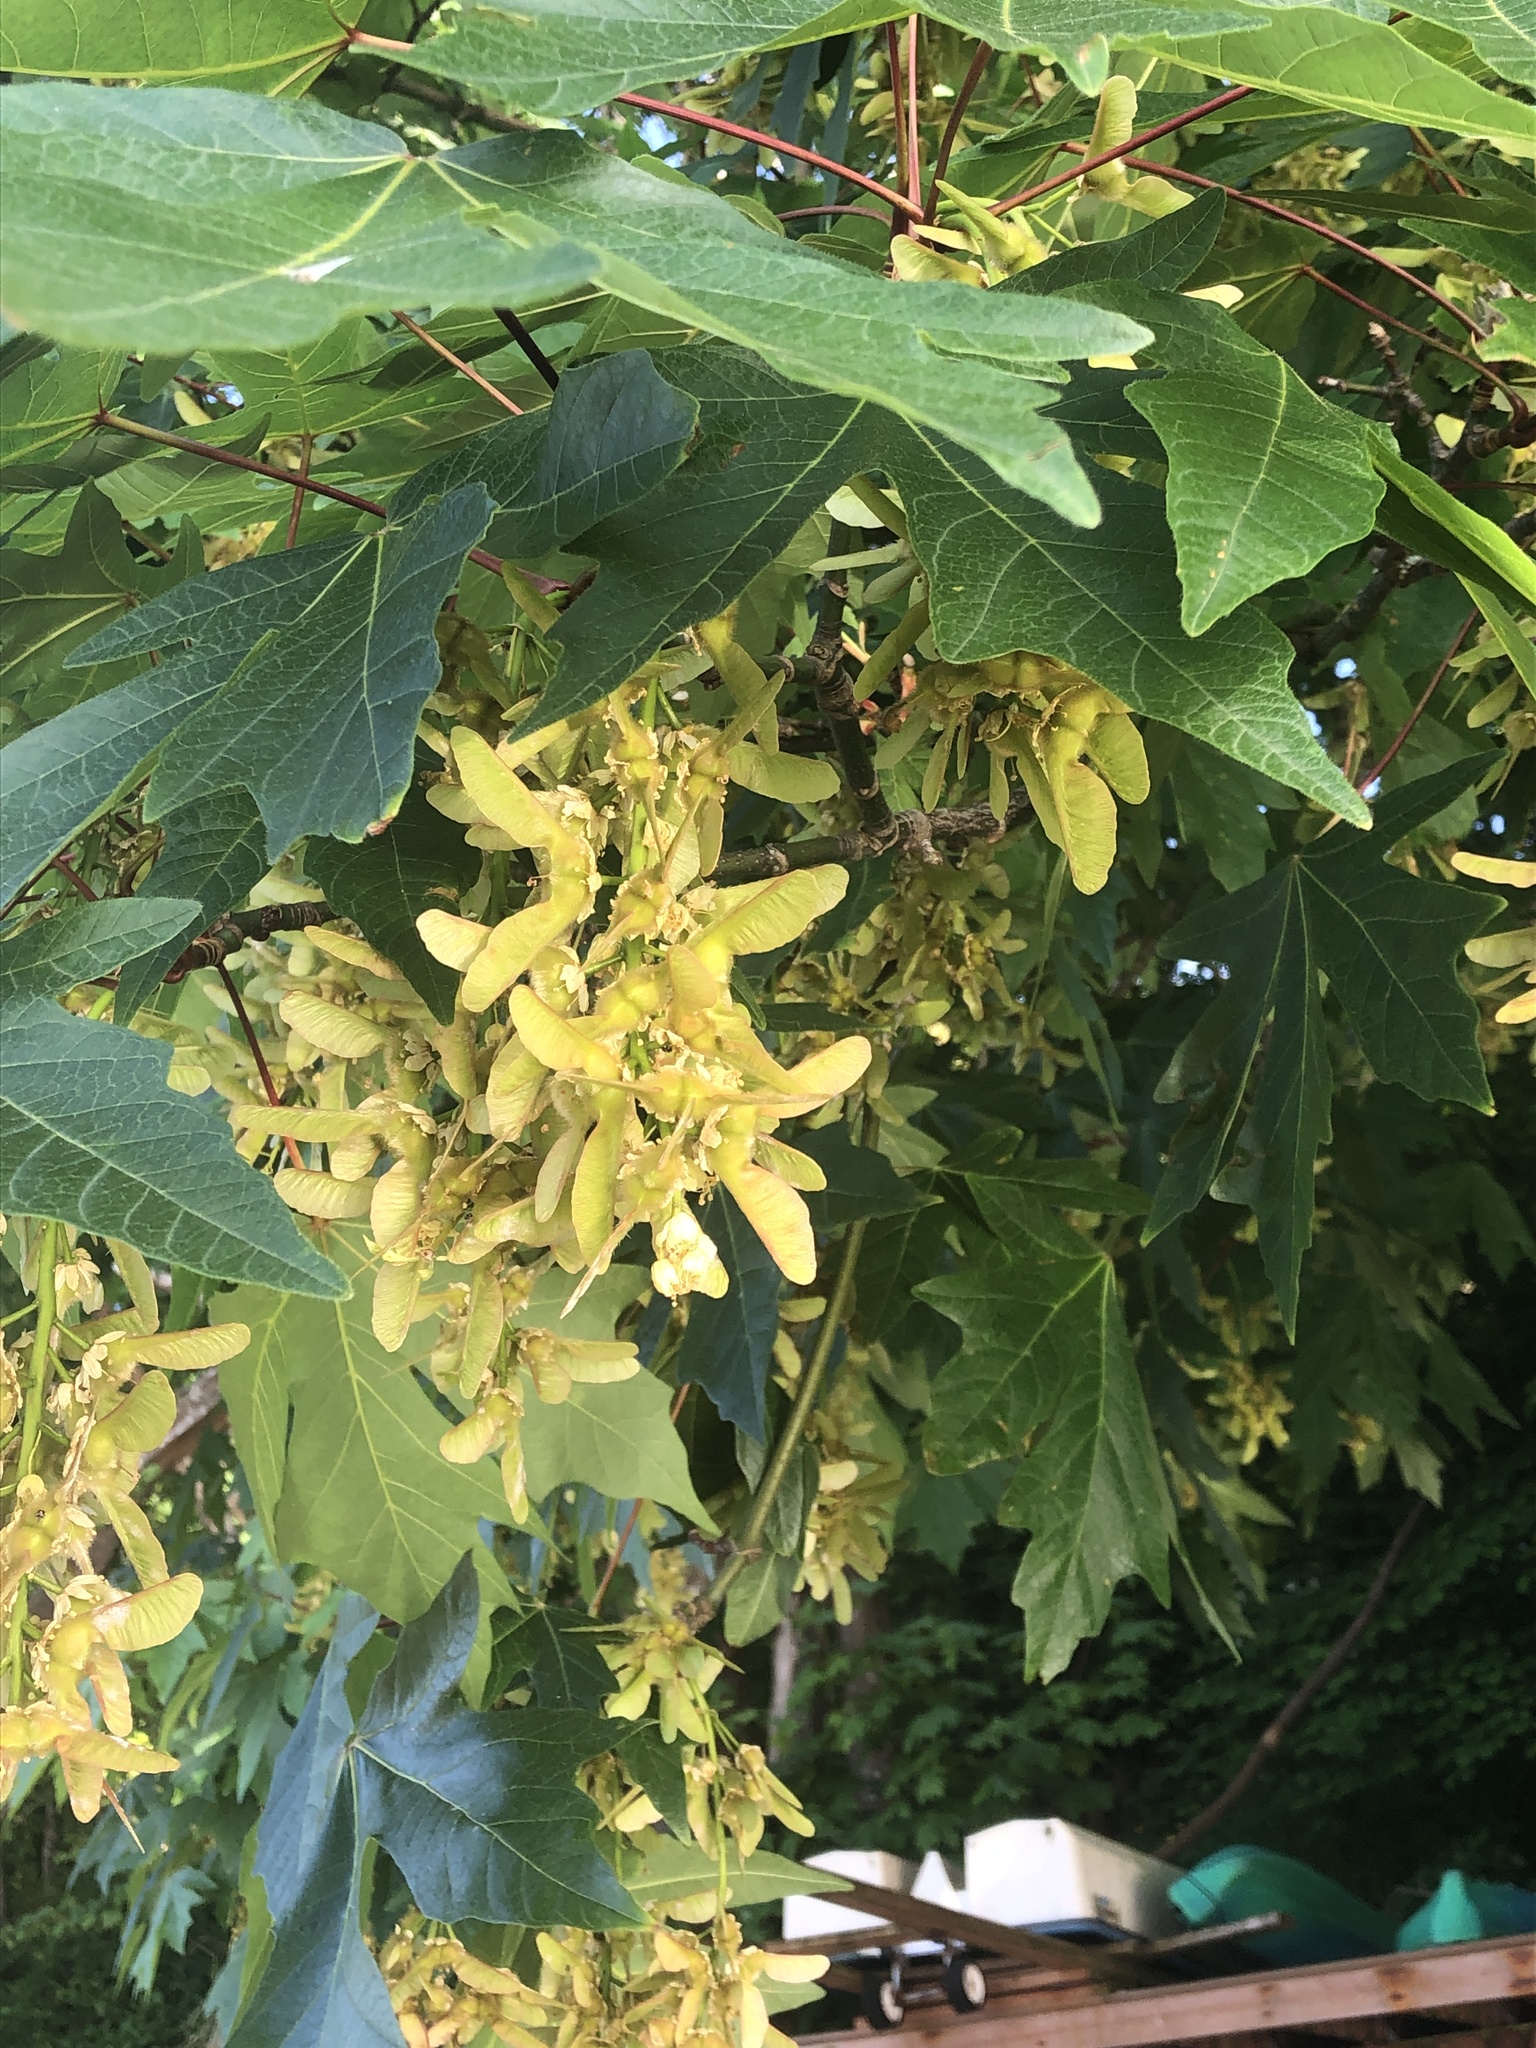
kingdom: Plantae
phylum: Tracheophyta
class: Magnoliopsida
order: Sapindales
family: Sapindaceae
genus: Acer
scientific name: Acer macrophyllum
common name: Oregon maple
